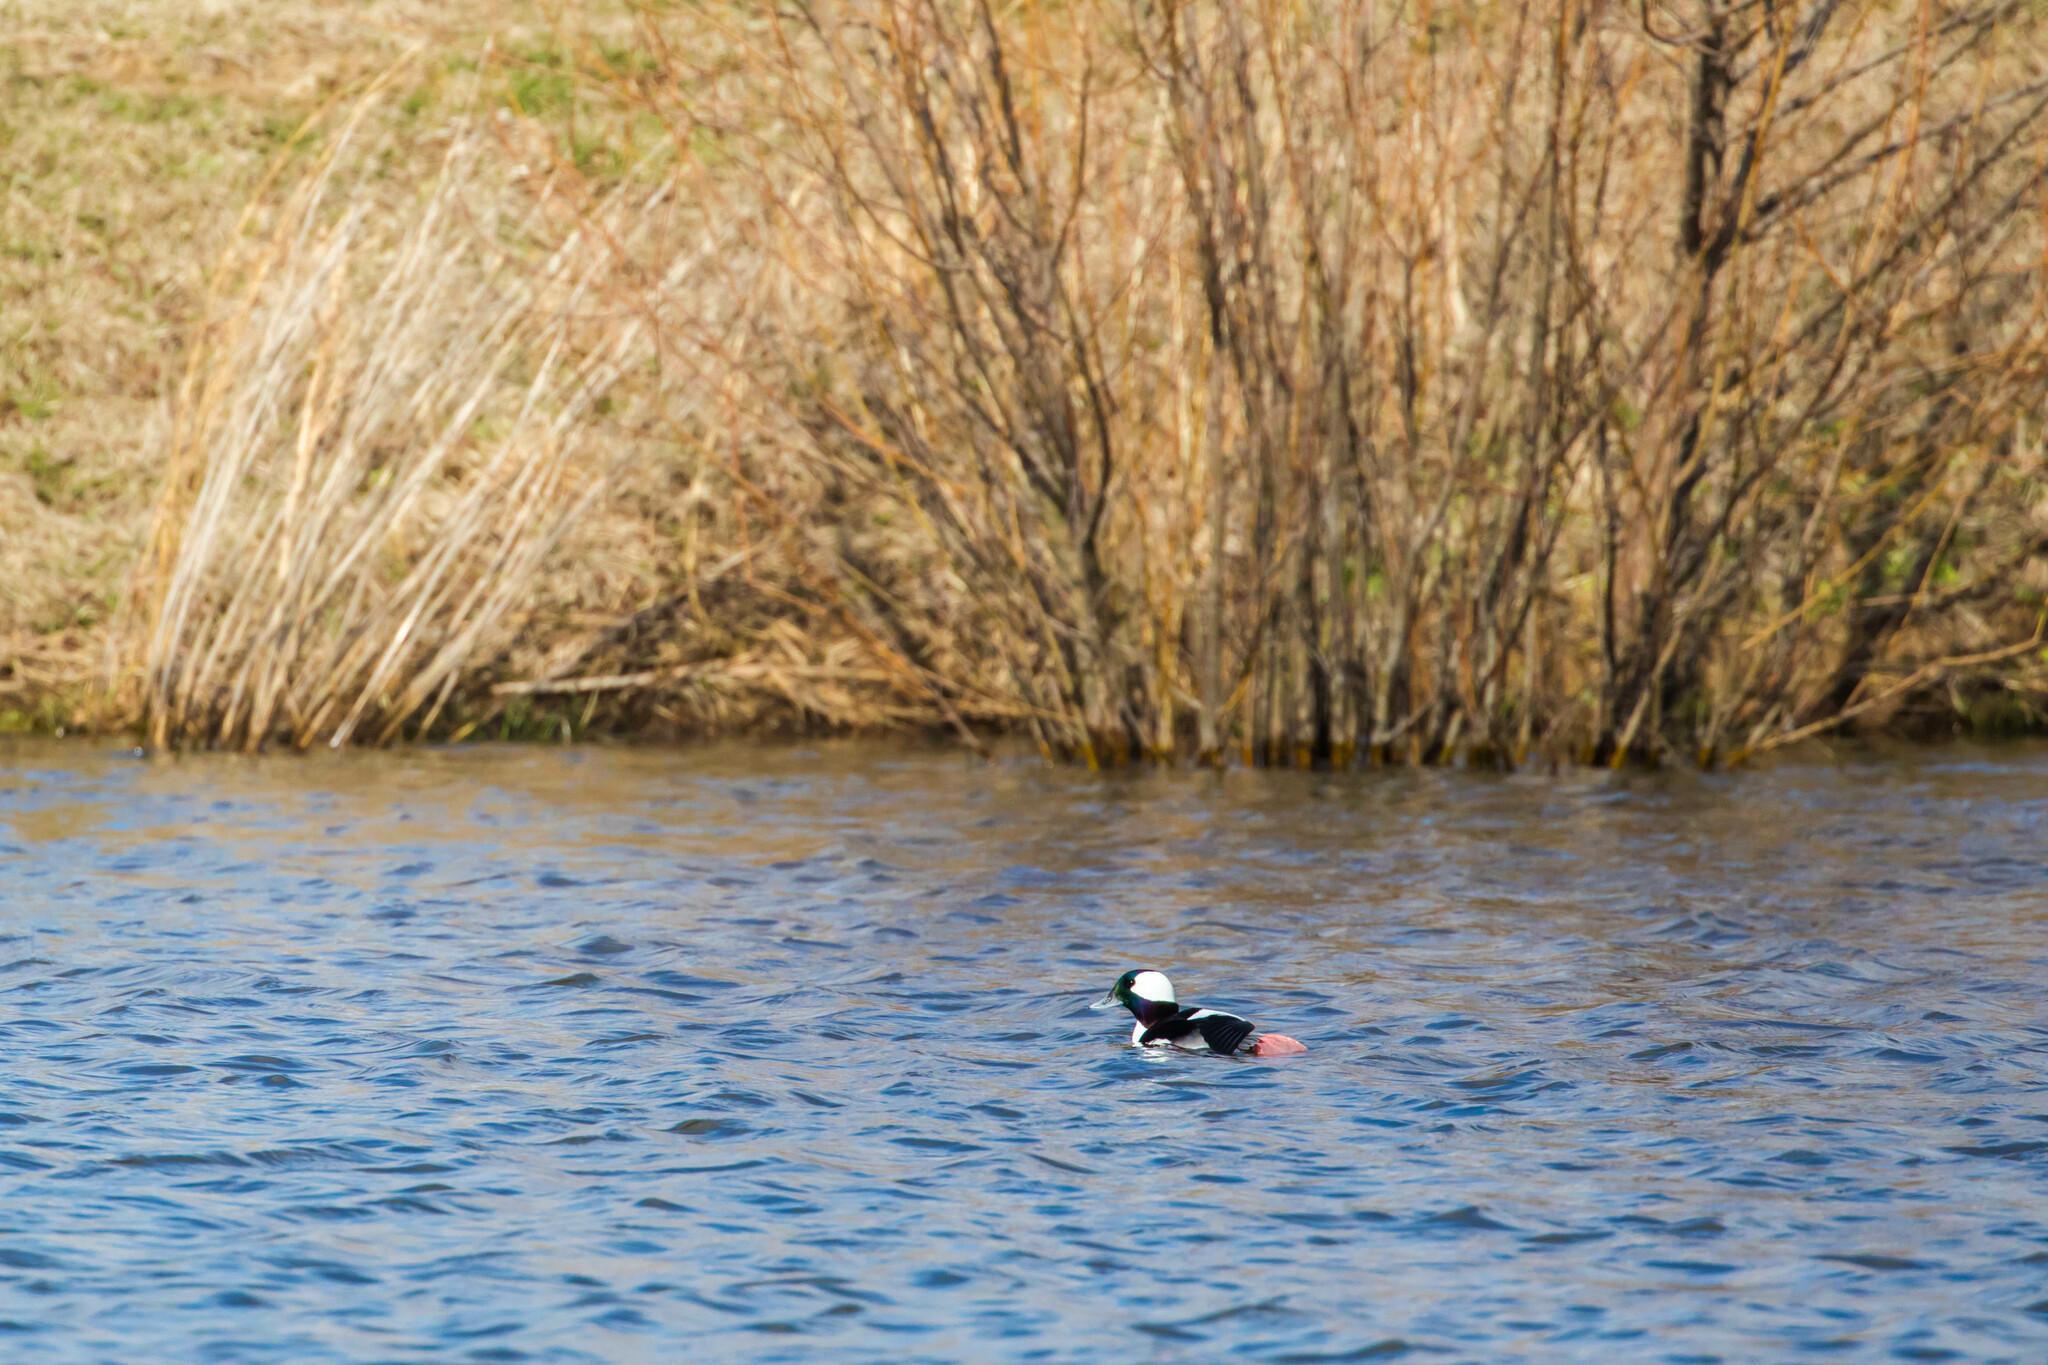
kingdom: Animalia
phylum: Chordata
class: Aves
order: Anseriformes
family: Anatidae
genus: Bucephala
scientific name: Bucephala albeola
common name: Bufflehead
